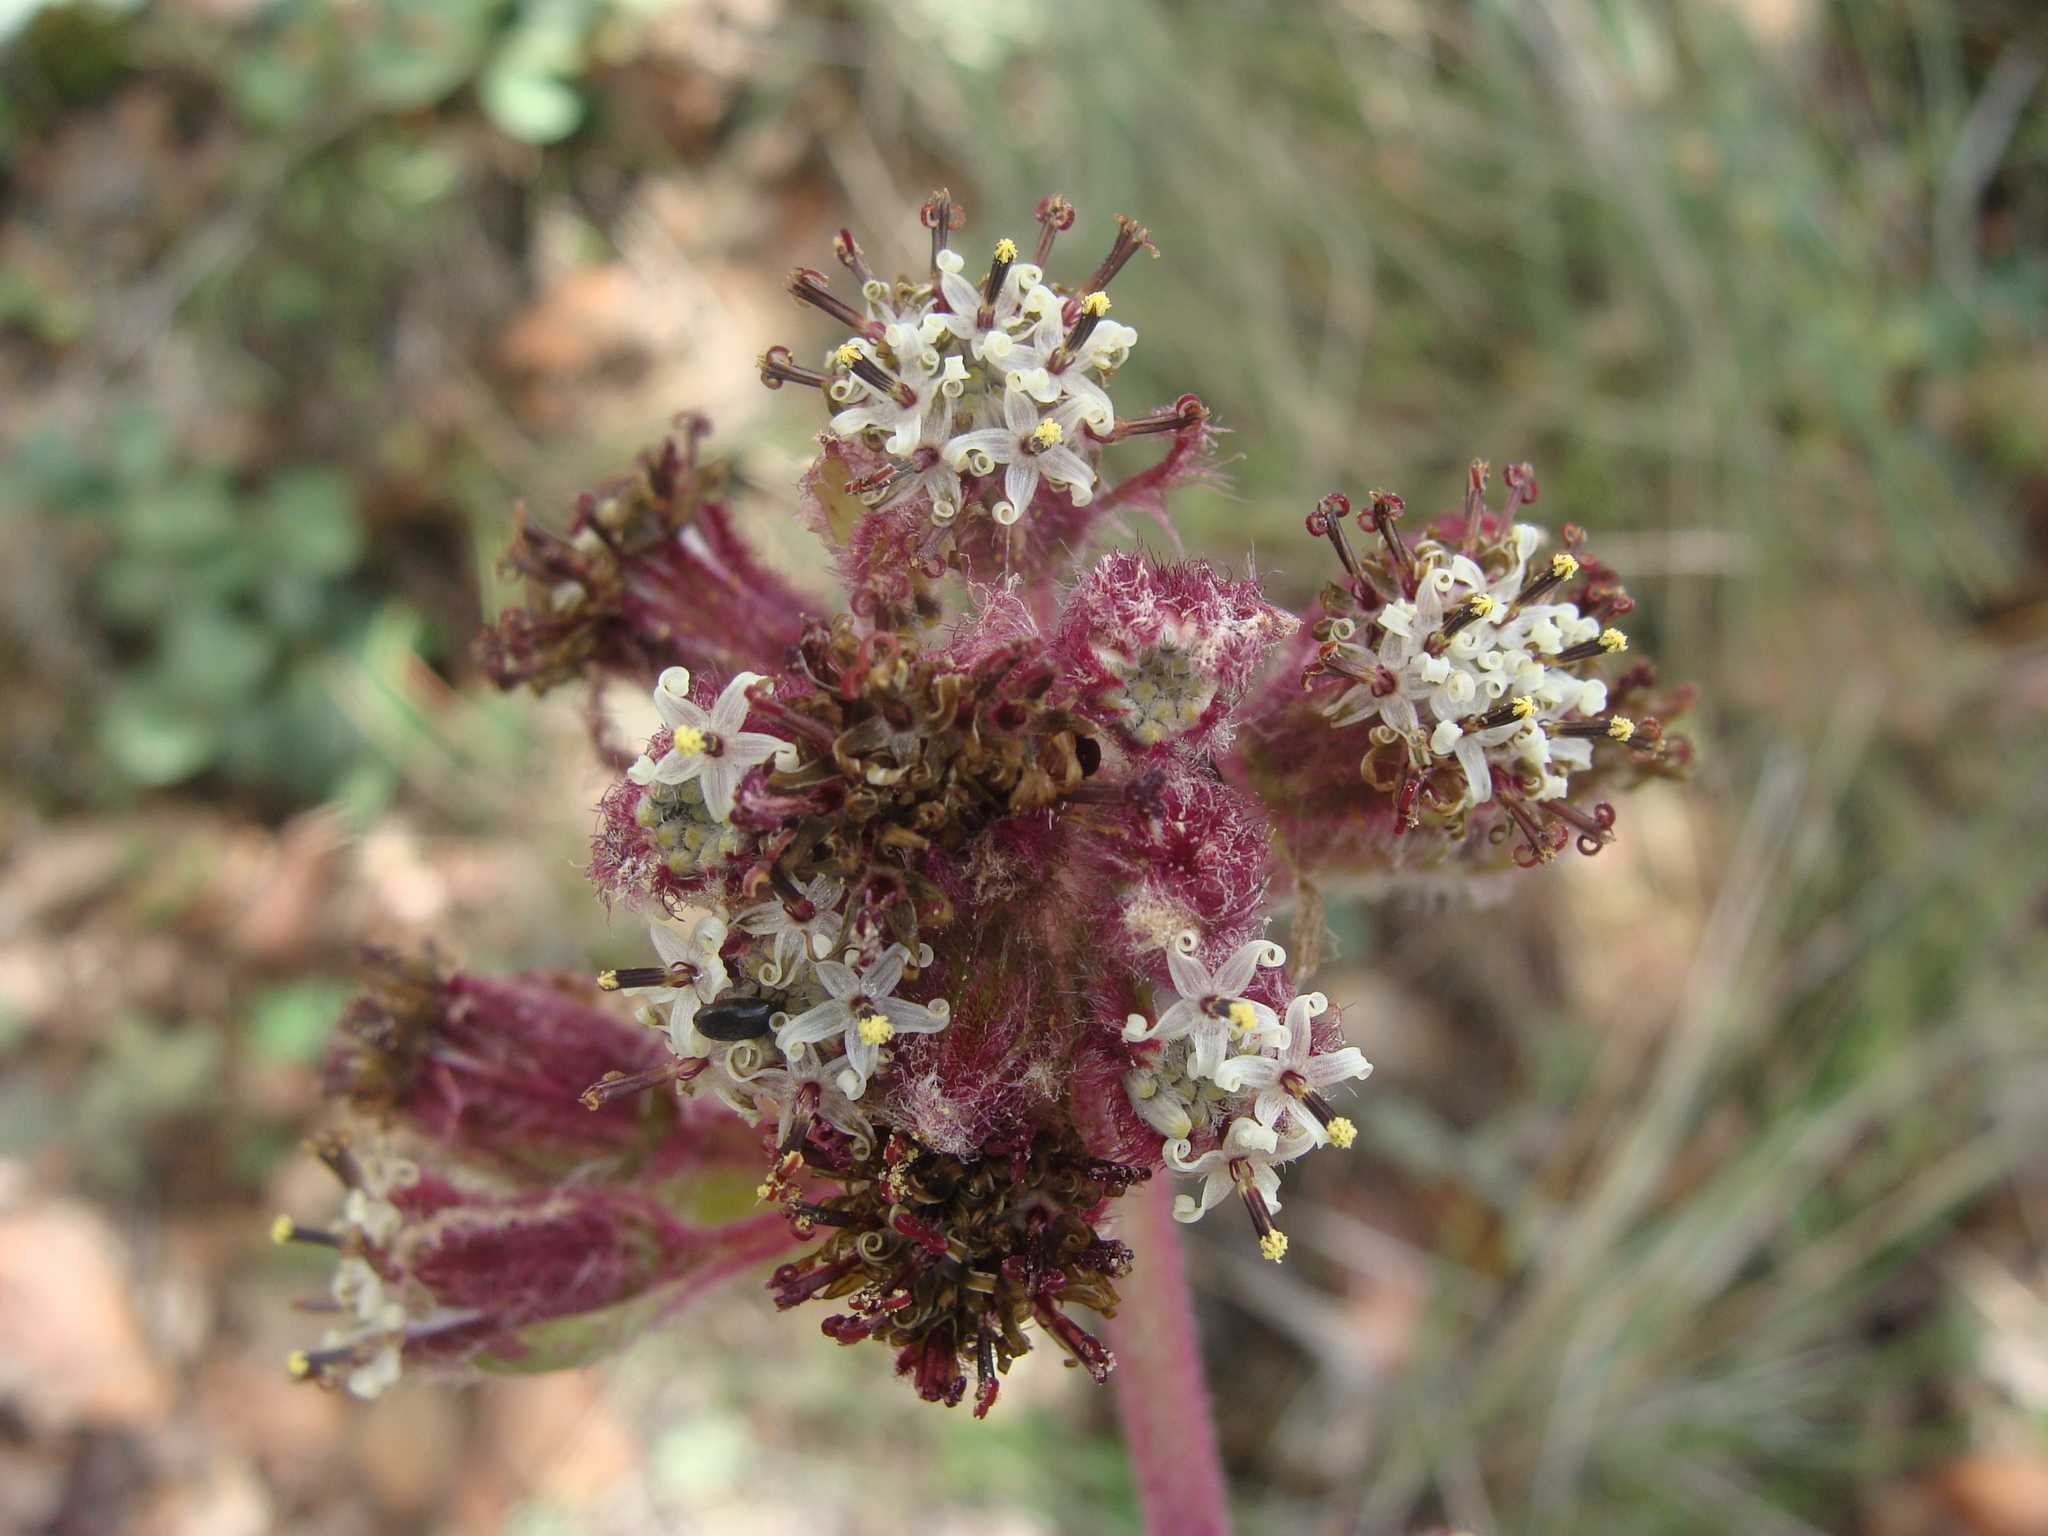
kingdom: Plantae
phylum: Tracheophyta
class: Magnoliopsida
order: Asterales
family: Asteraceae
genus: Psacalium
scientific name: Psacalium peltatum
